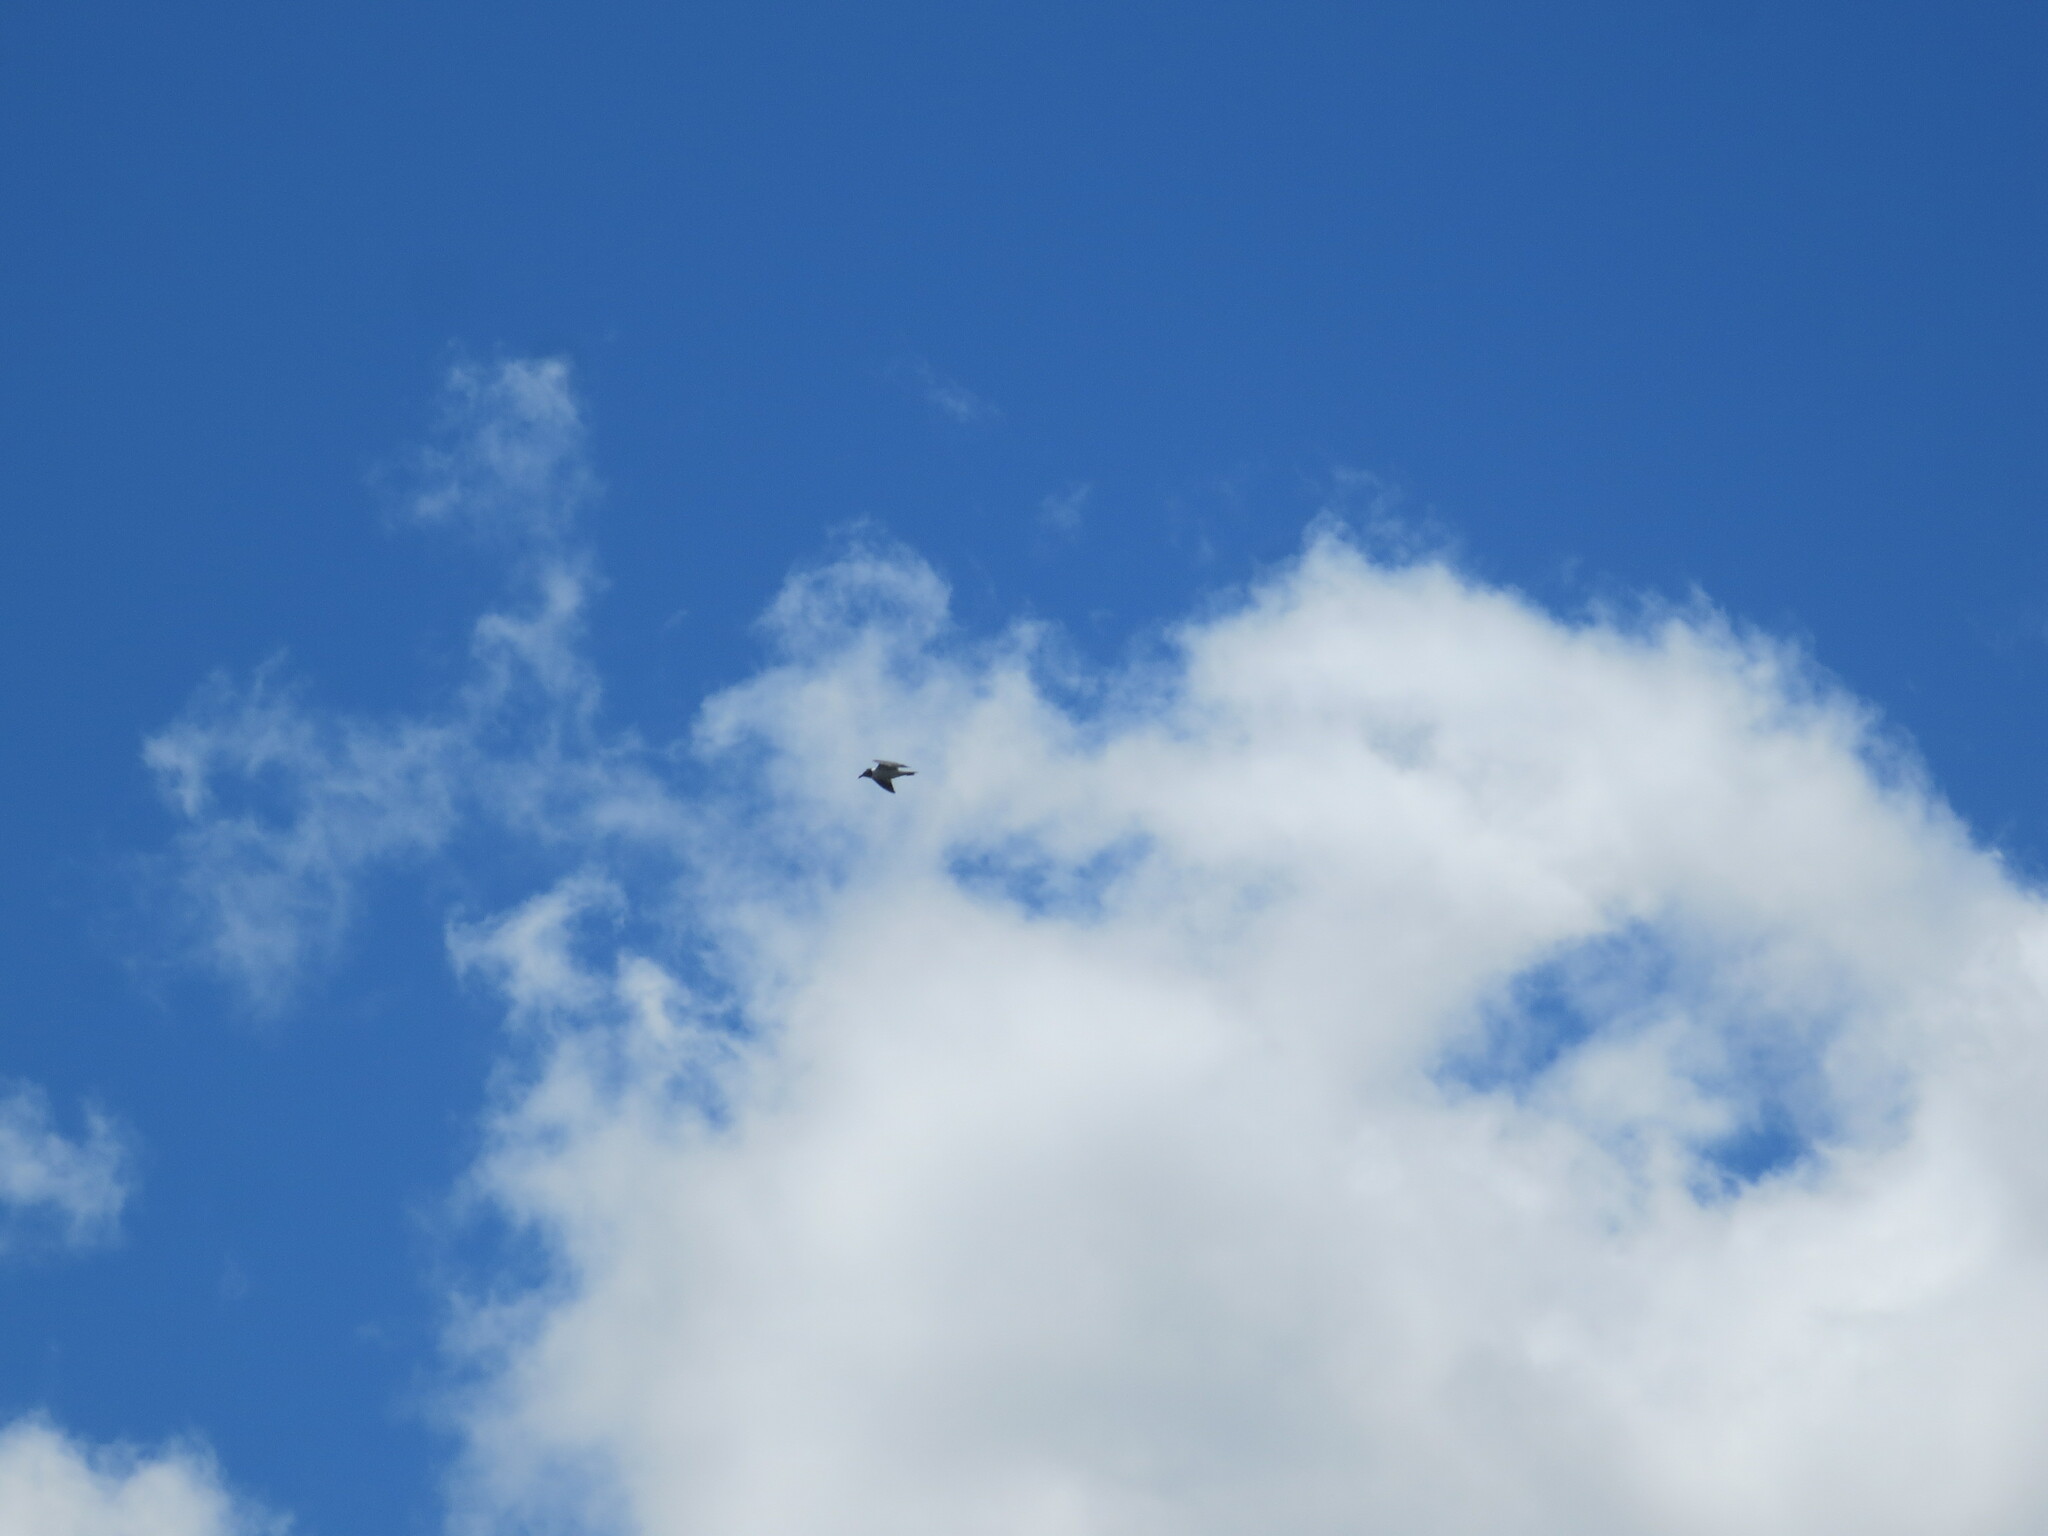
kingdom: Animalia
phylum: Chordata
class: Aves
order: Charadriiformes
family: Laridae
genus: Leucophaeus
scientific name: Leucophaeus atricilla
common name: Laughing gull
